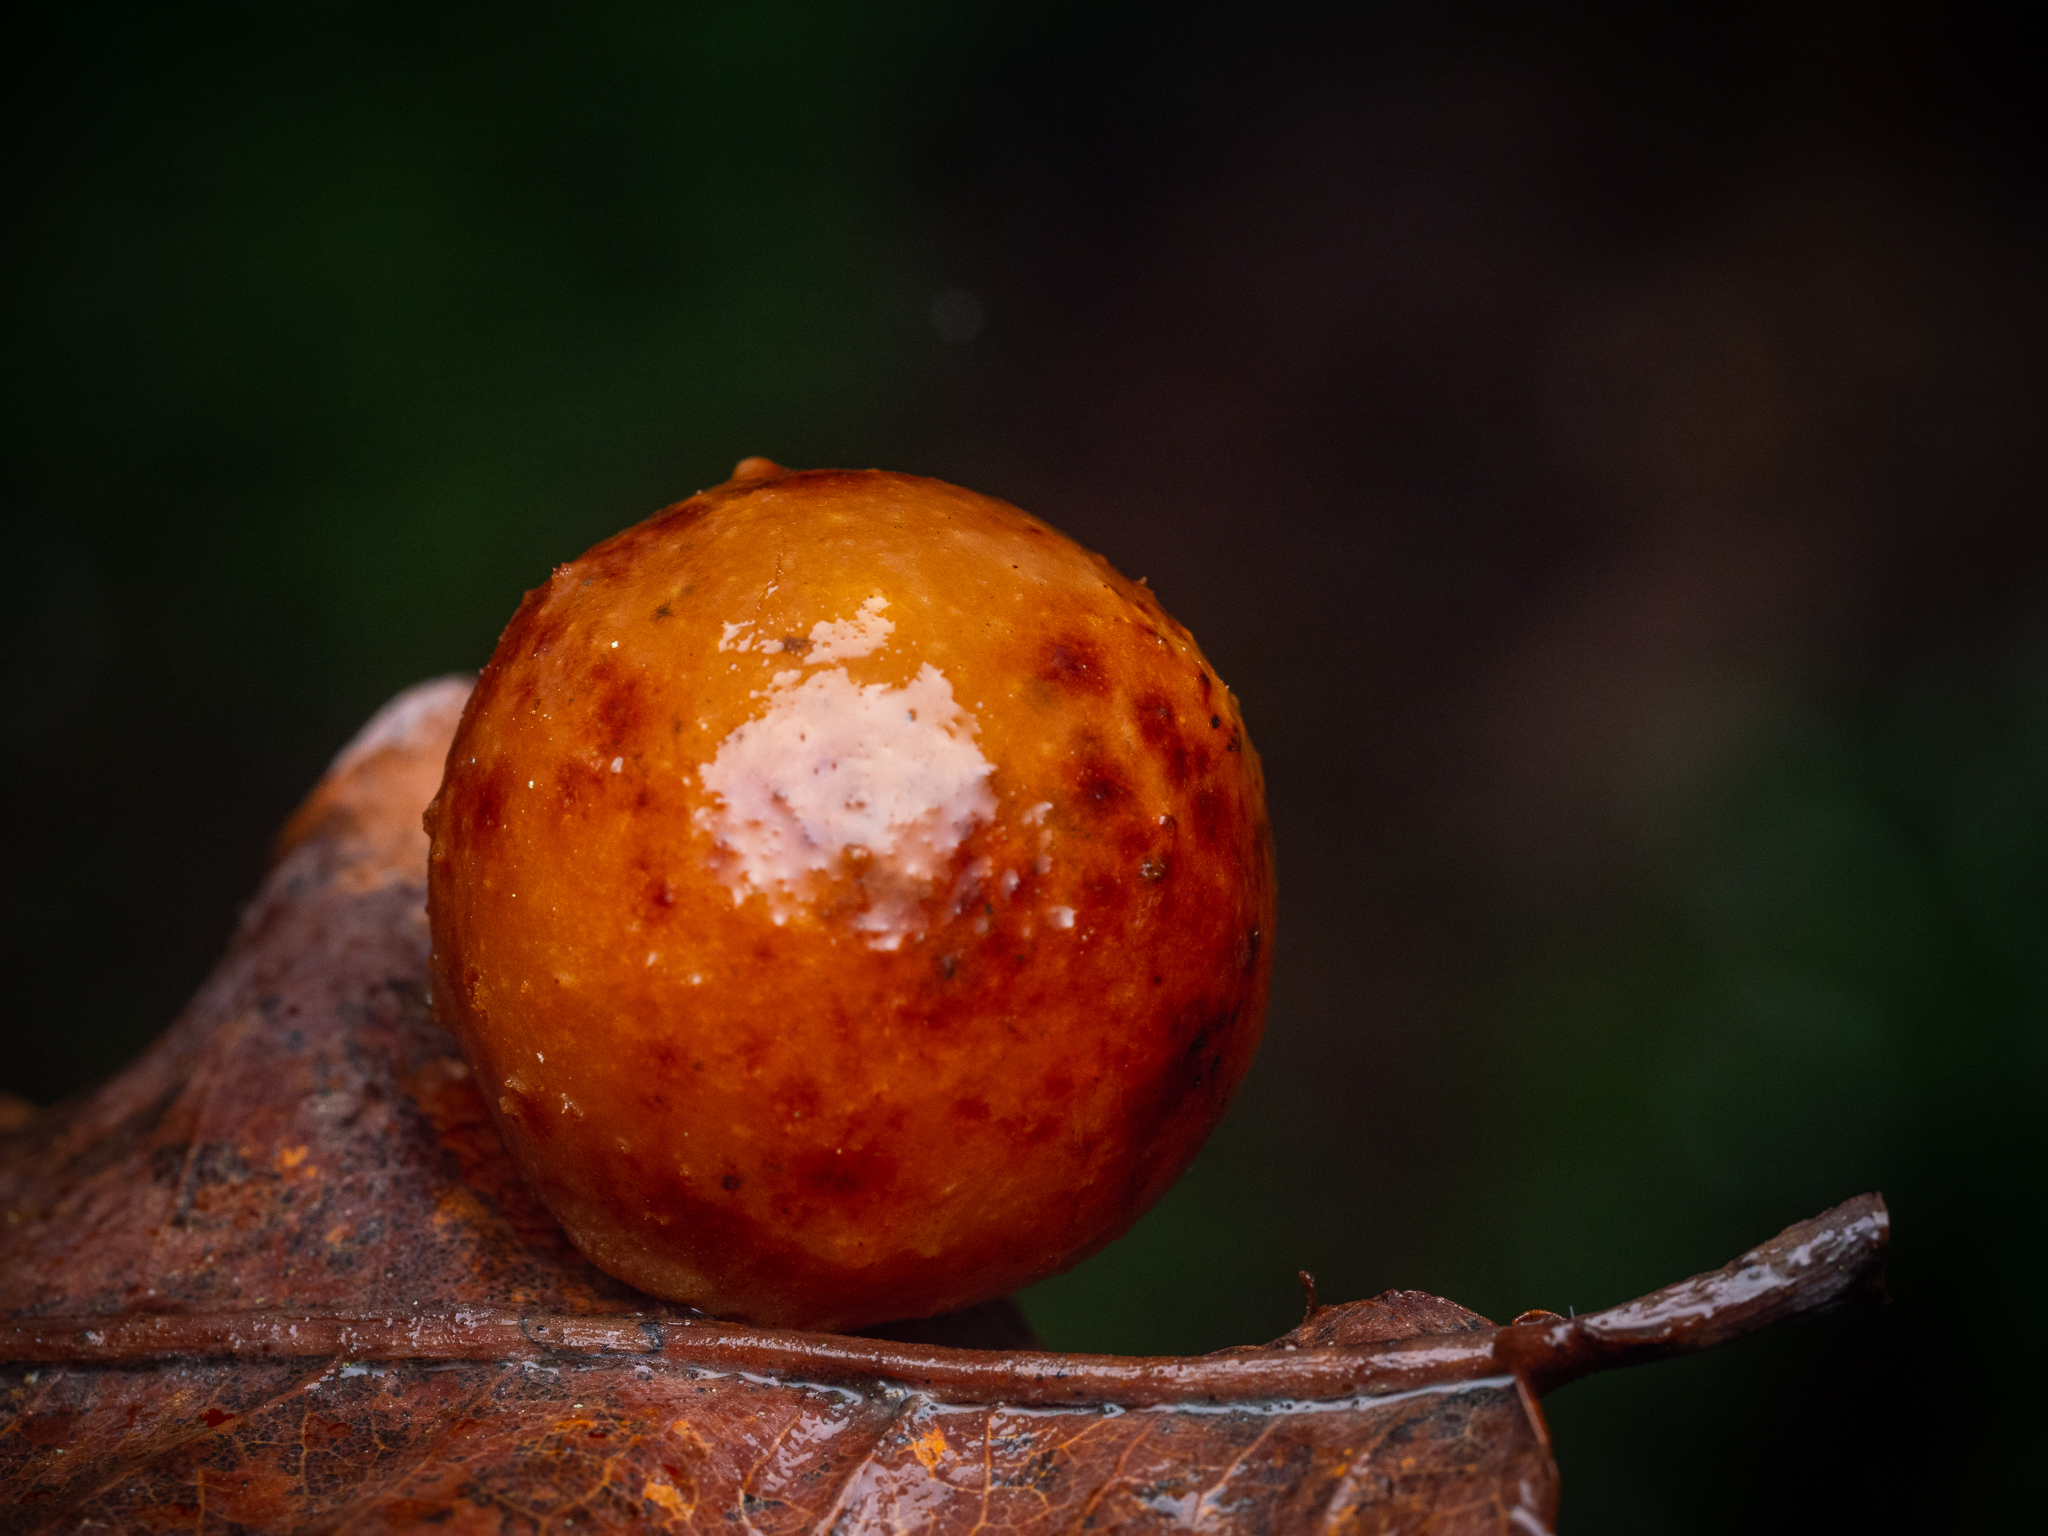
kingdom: Animalia
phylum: Arthropoda
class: Insecta
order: Hymenoptera
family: Cynipidae
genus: Cynips
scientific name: Cynips quercusfolii
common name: Cherry gall
